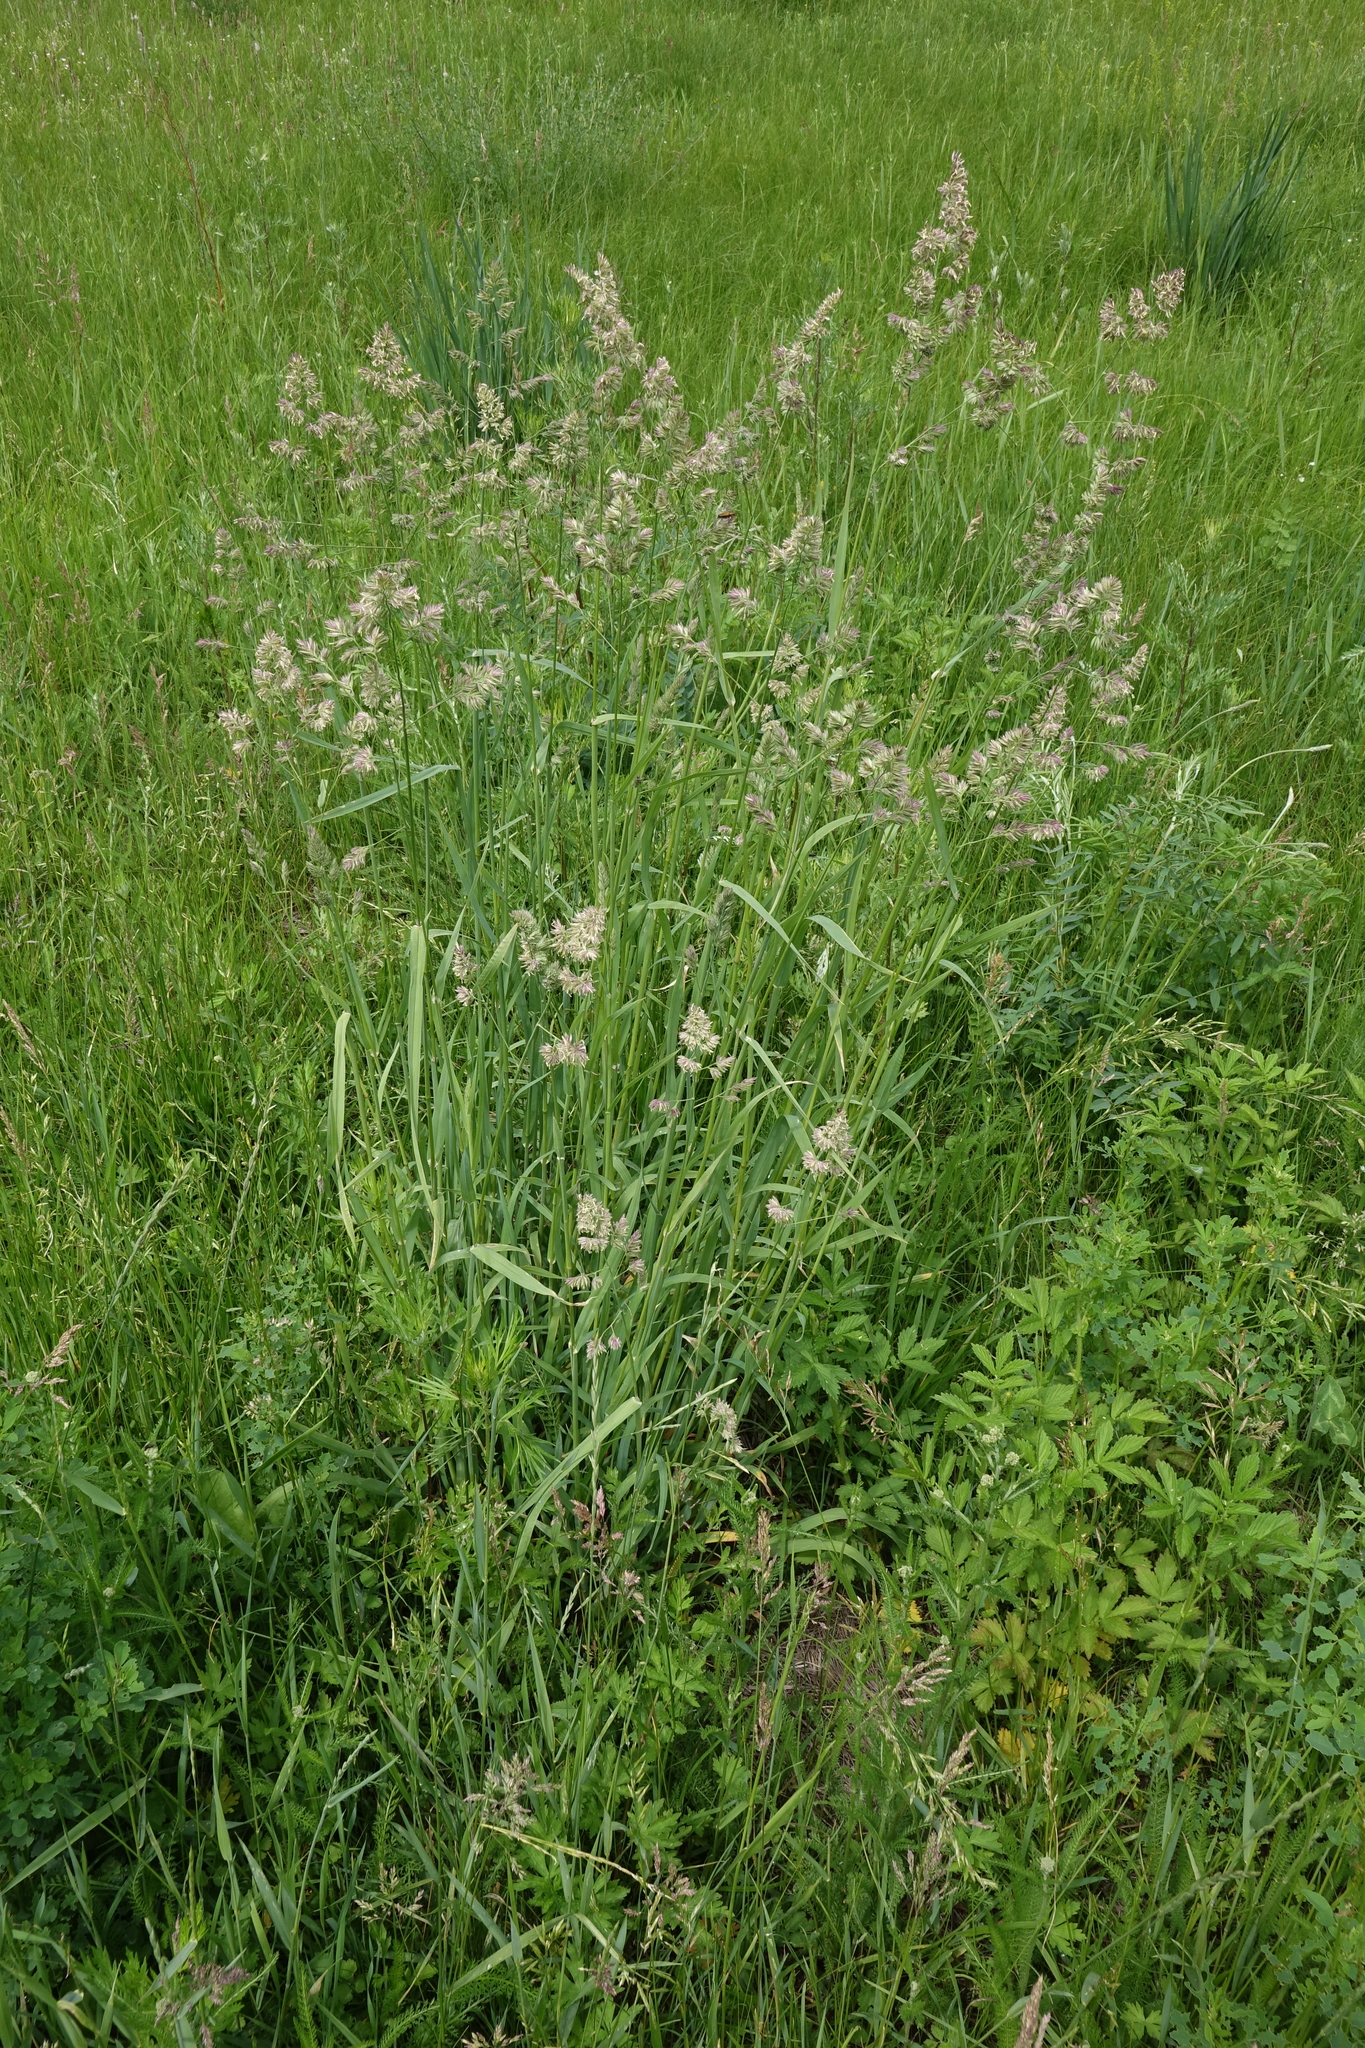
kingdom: Plantae
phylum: Tracheophyta
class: Liliopsida
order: Poales
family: Poaceae
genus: Dactylis
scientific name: Dactylis glomerata
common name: Orchardgrass
